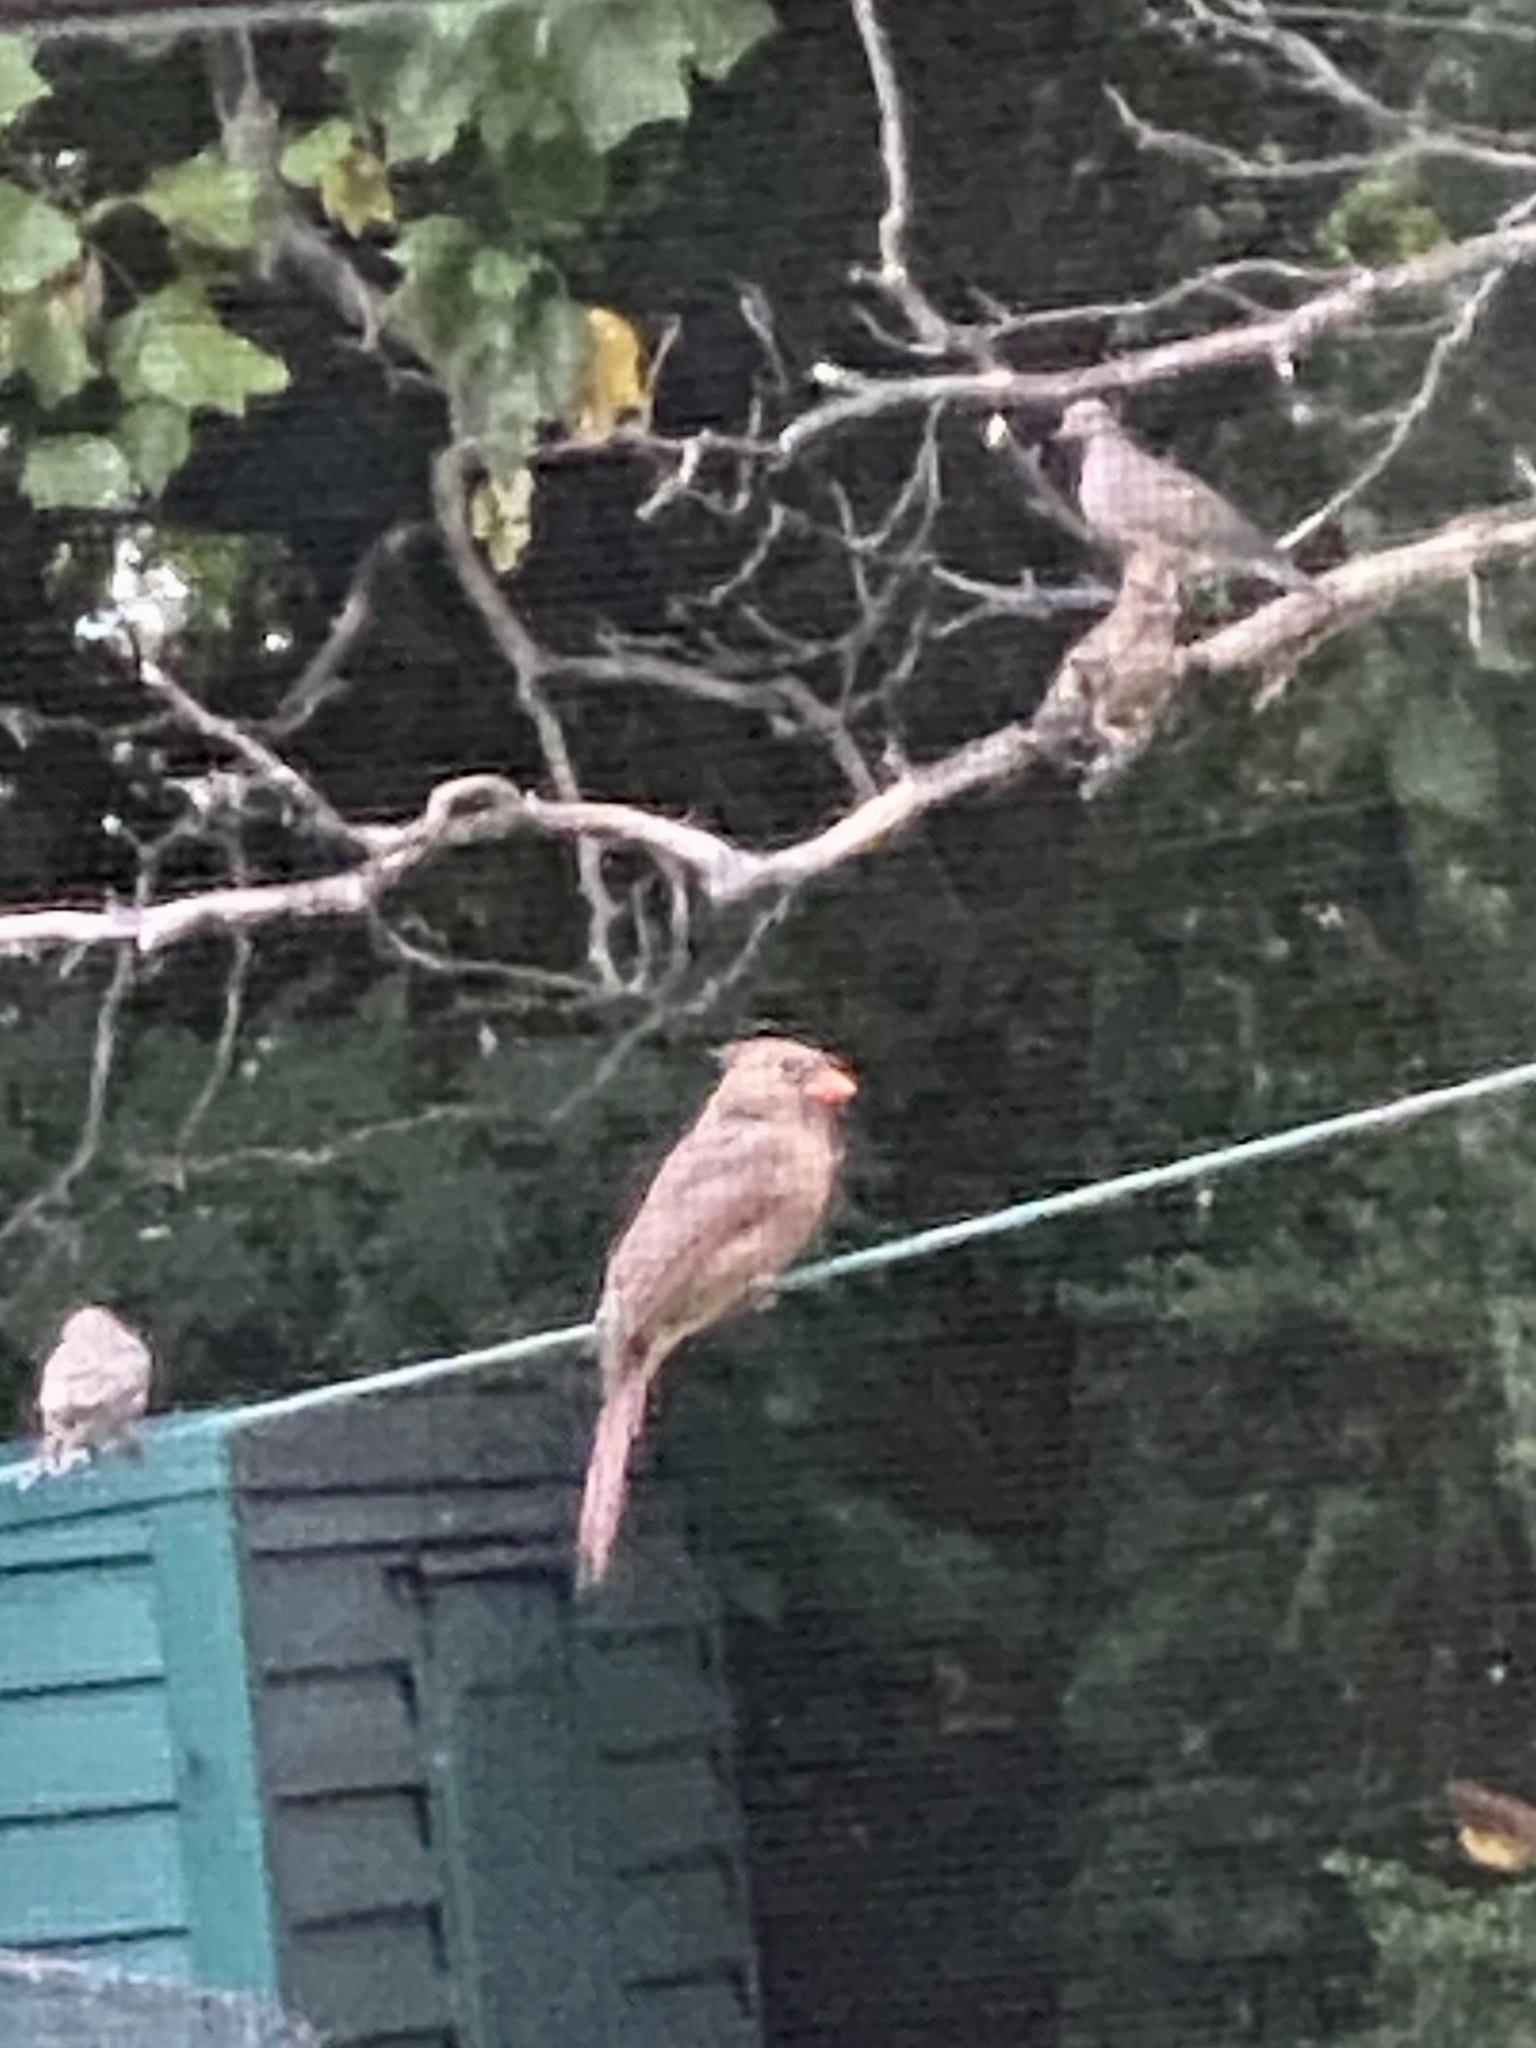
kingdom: Animalia
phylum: Chordata
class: Aves
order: Passeriformes
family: Cardinalidae
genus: Cardinalis
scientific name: Cardinalis cardinalis
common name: Northern cardinal
